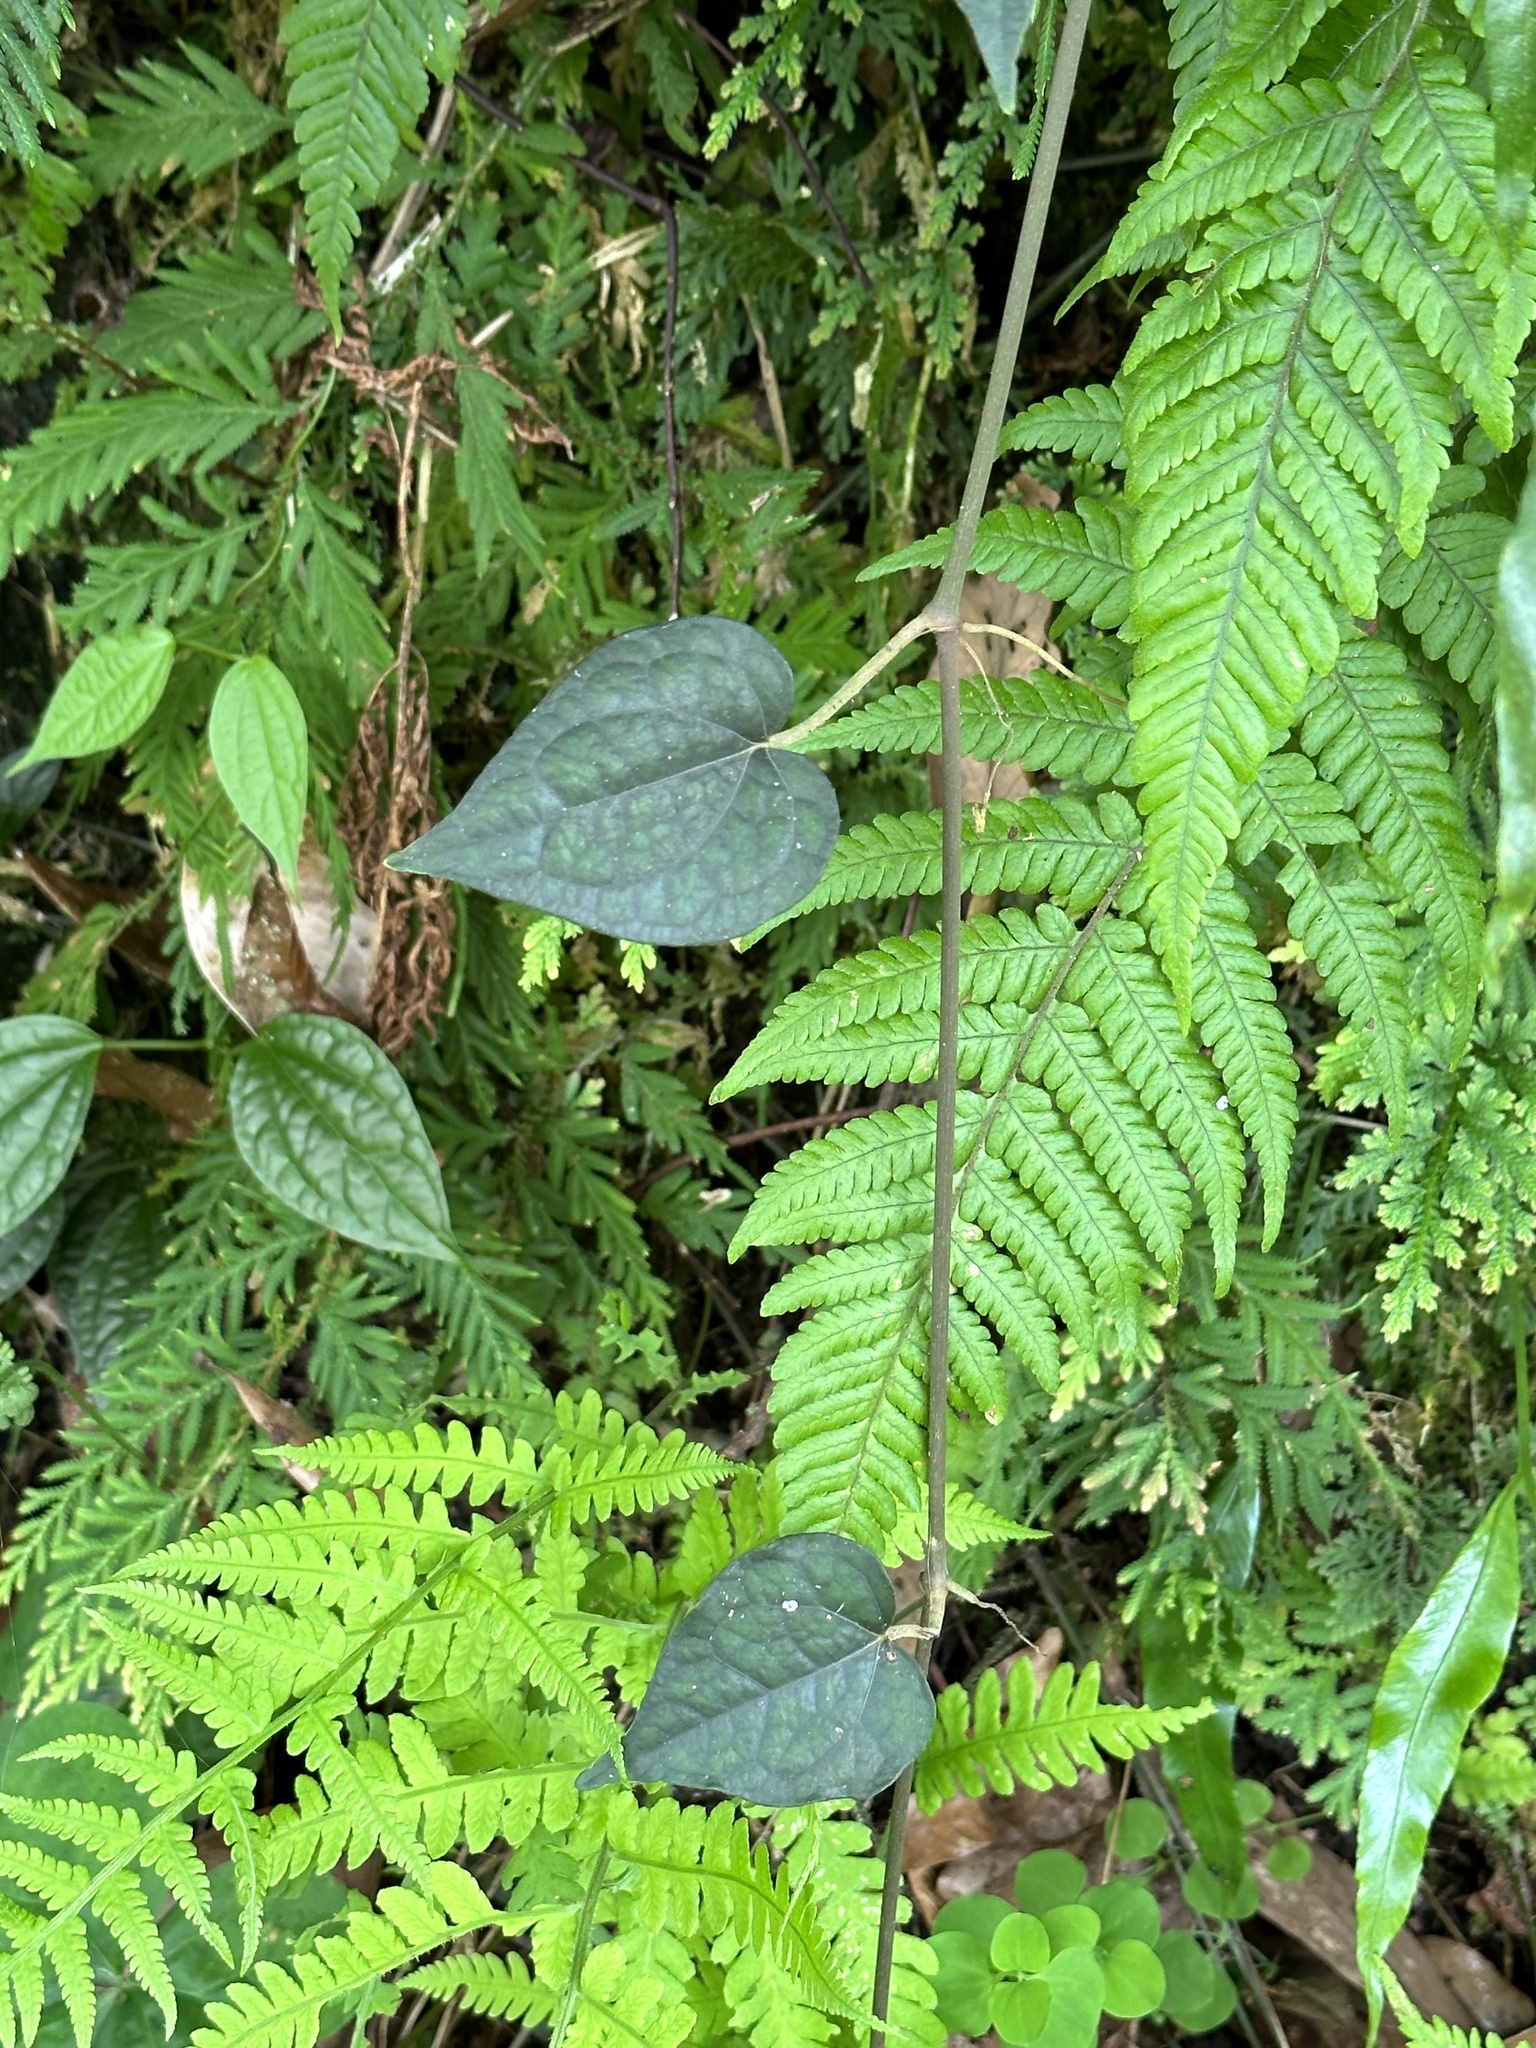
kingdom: Plantae
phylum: Tracheophyta
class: Magnoliopsida
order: Piperales
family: Piperaceae
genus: Piper
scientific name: Piper kadsura
